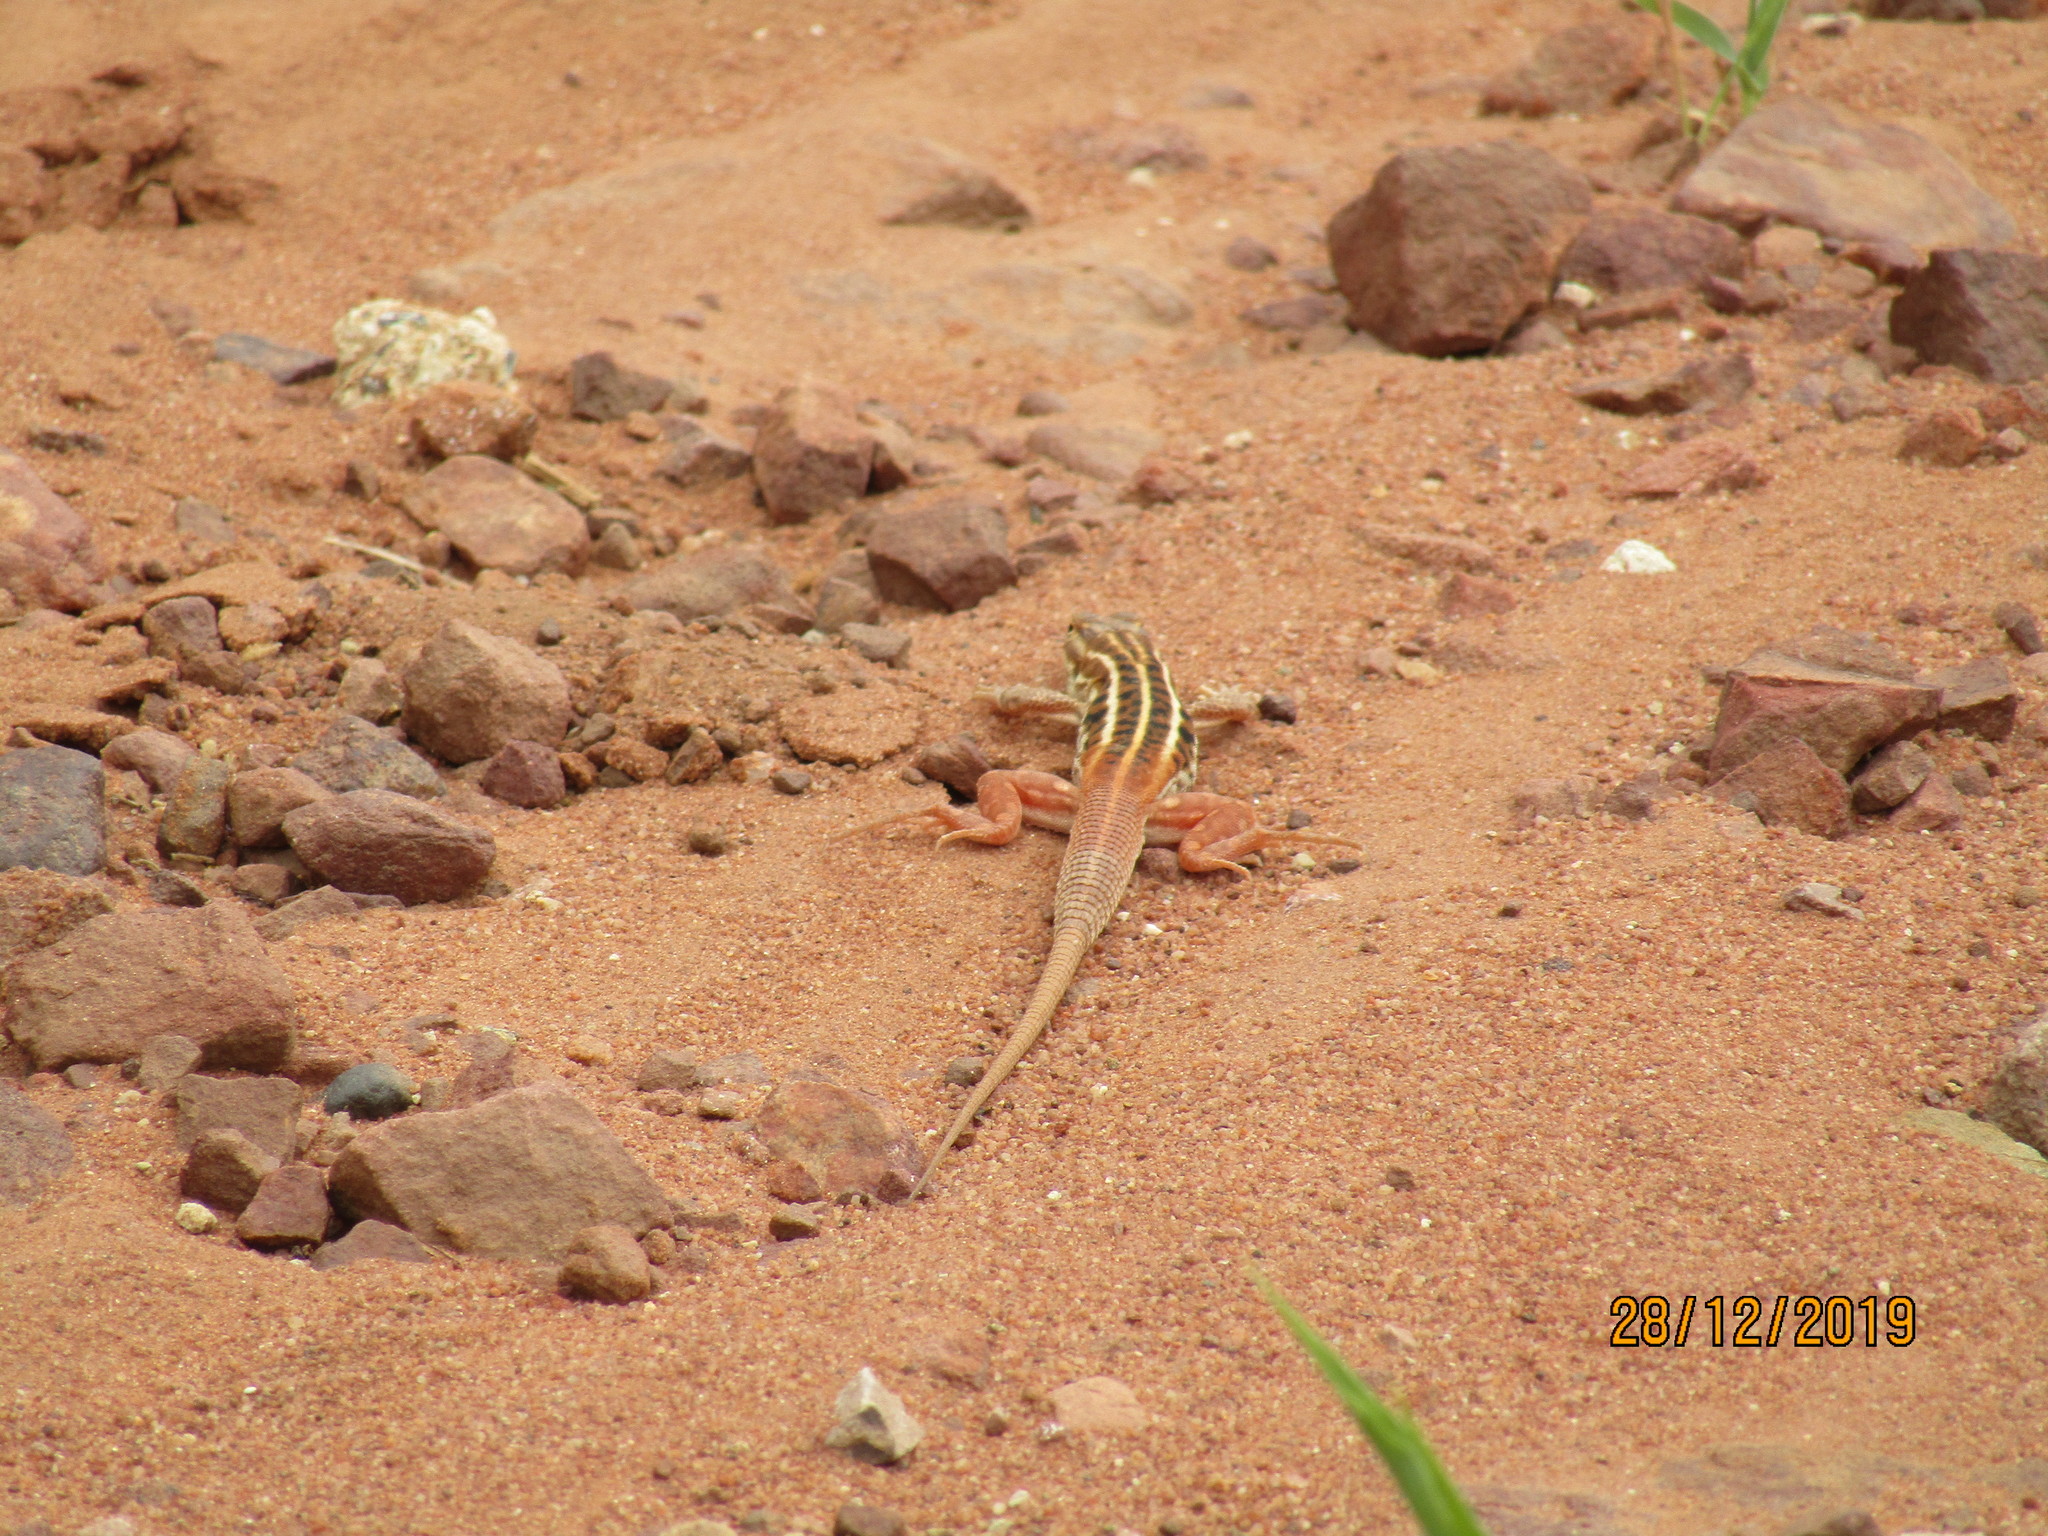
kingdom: Animalia
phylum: Chordata
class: Squamata
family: Lacertidae
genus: Heliobolus
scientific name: Heliobolus lugubris
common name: Bushveld lizard
